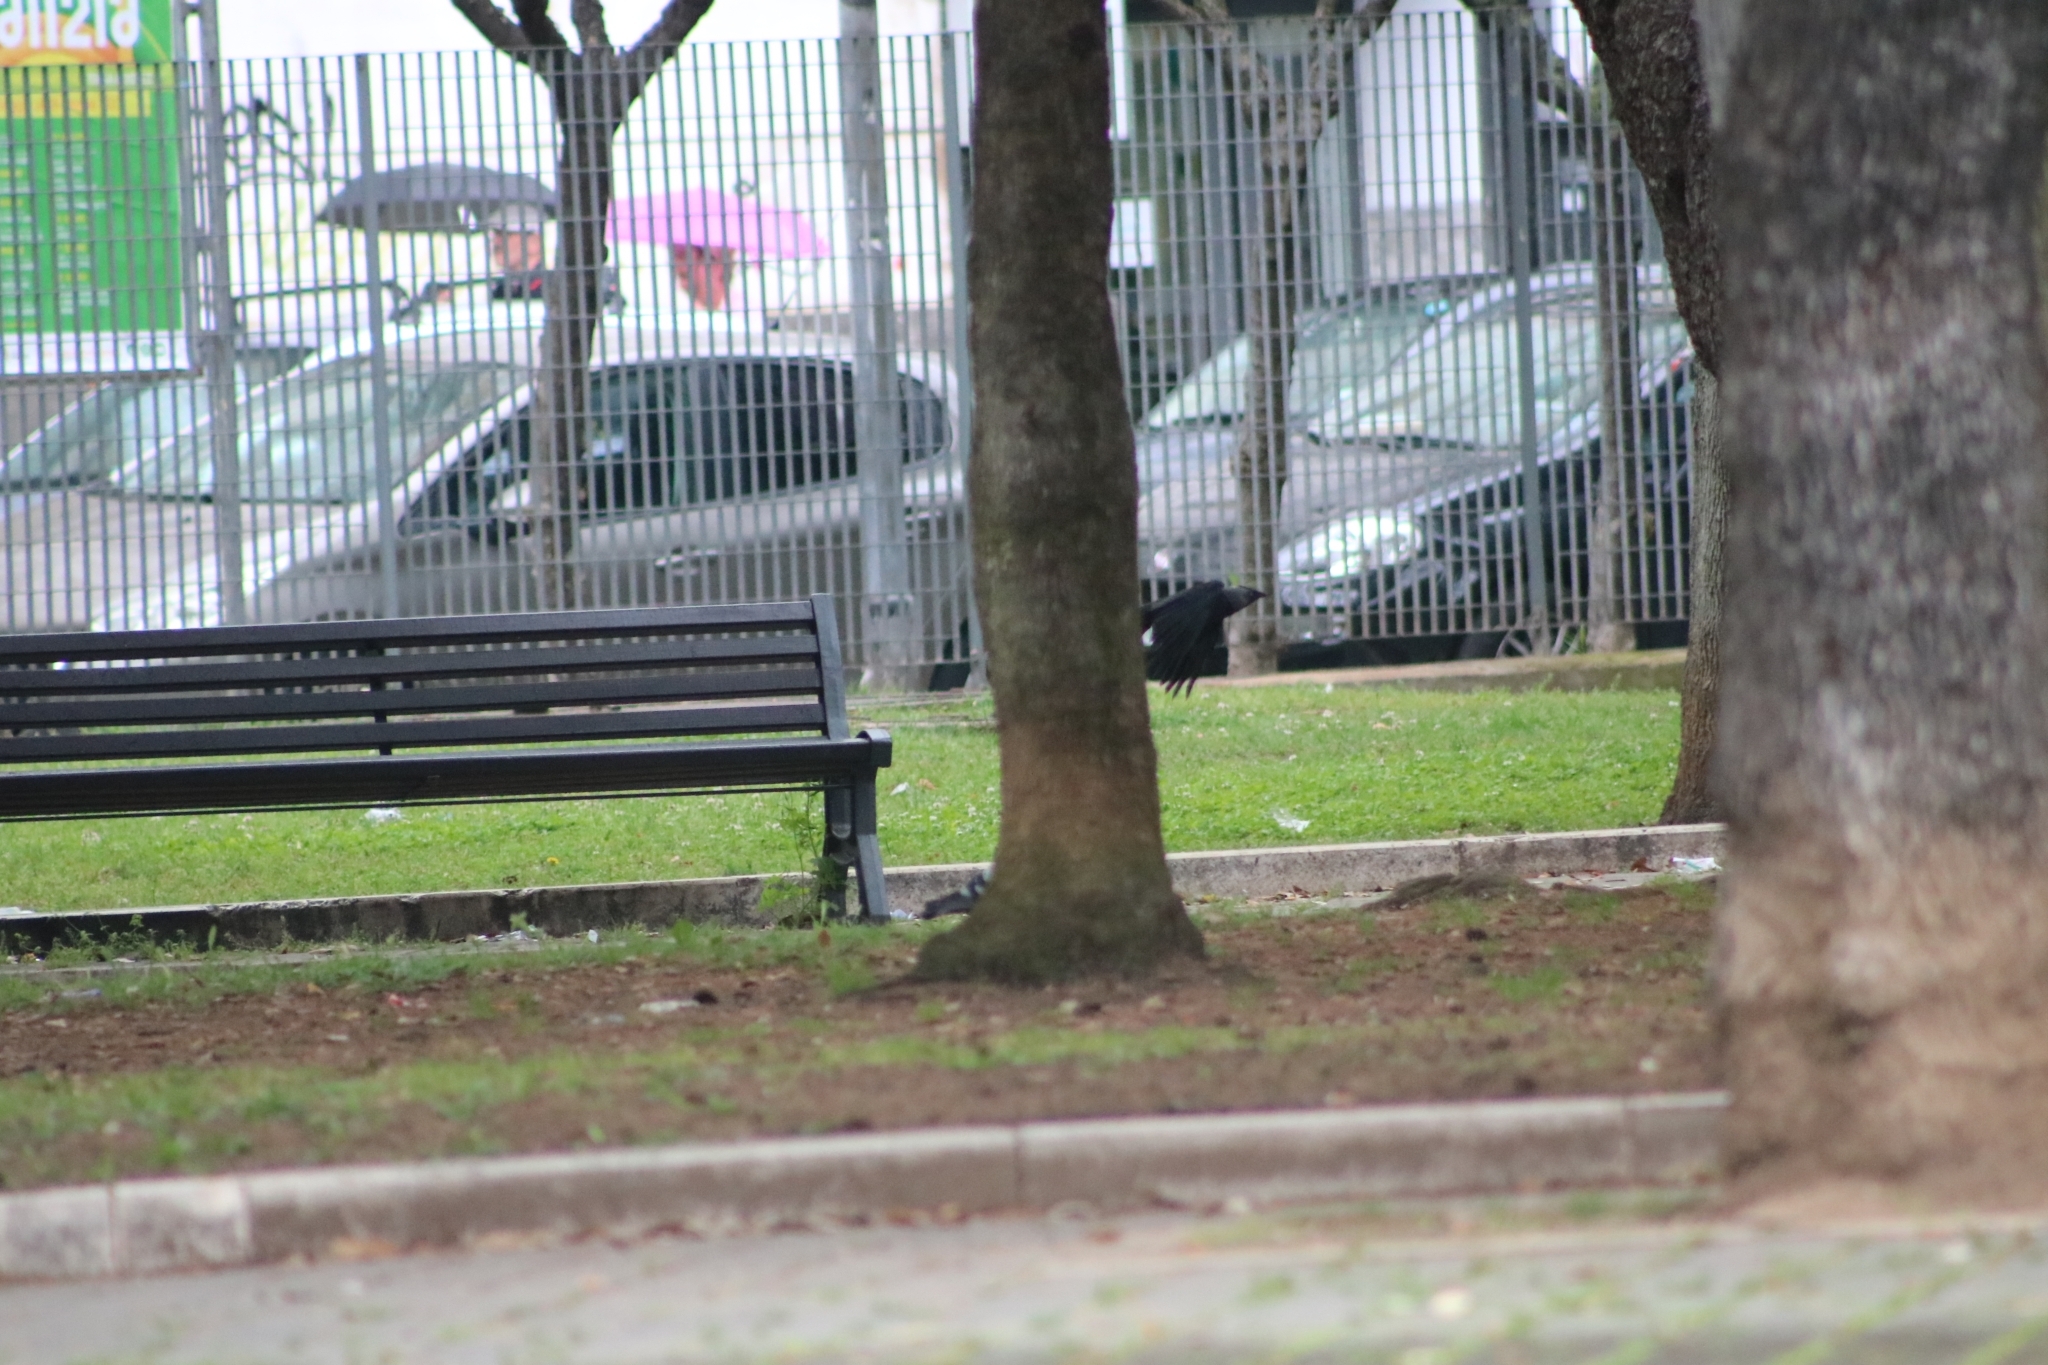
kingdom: Animalia
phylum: Chordata
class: Aves
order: Passeriformes
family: Corvidae
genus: Coloeus
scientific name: Coloeus monedula
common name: Western jackdaw
